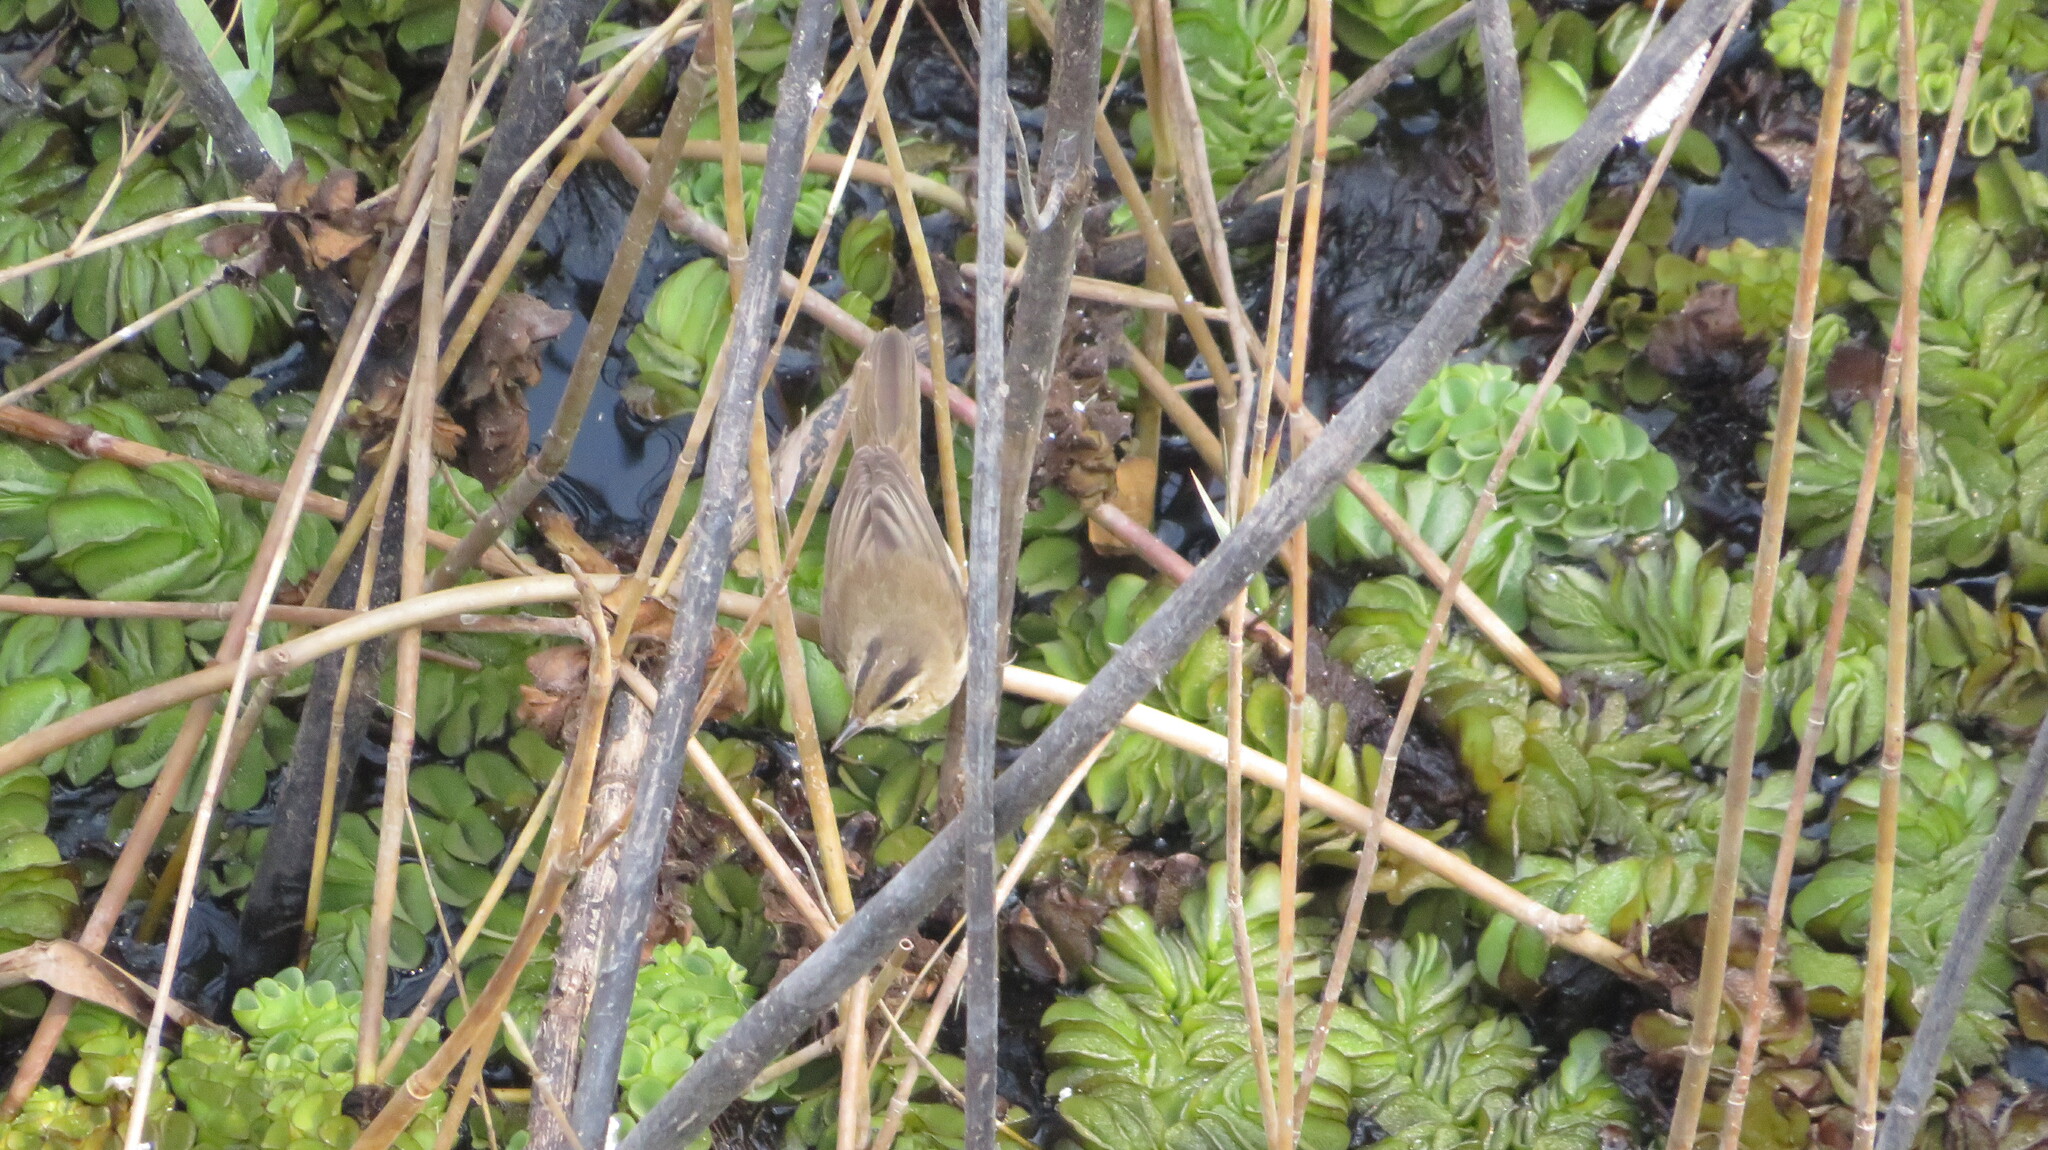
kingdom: Animalia
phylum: Chordata
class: Aves
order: Passeriformes
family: Acrocephalidae
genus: Acrocephalus
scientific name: Acrocephalus bistrigiceps
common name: Black-browed reed warbler
